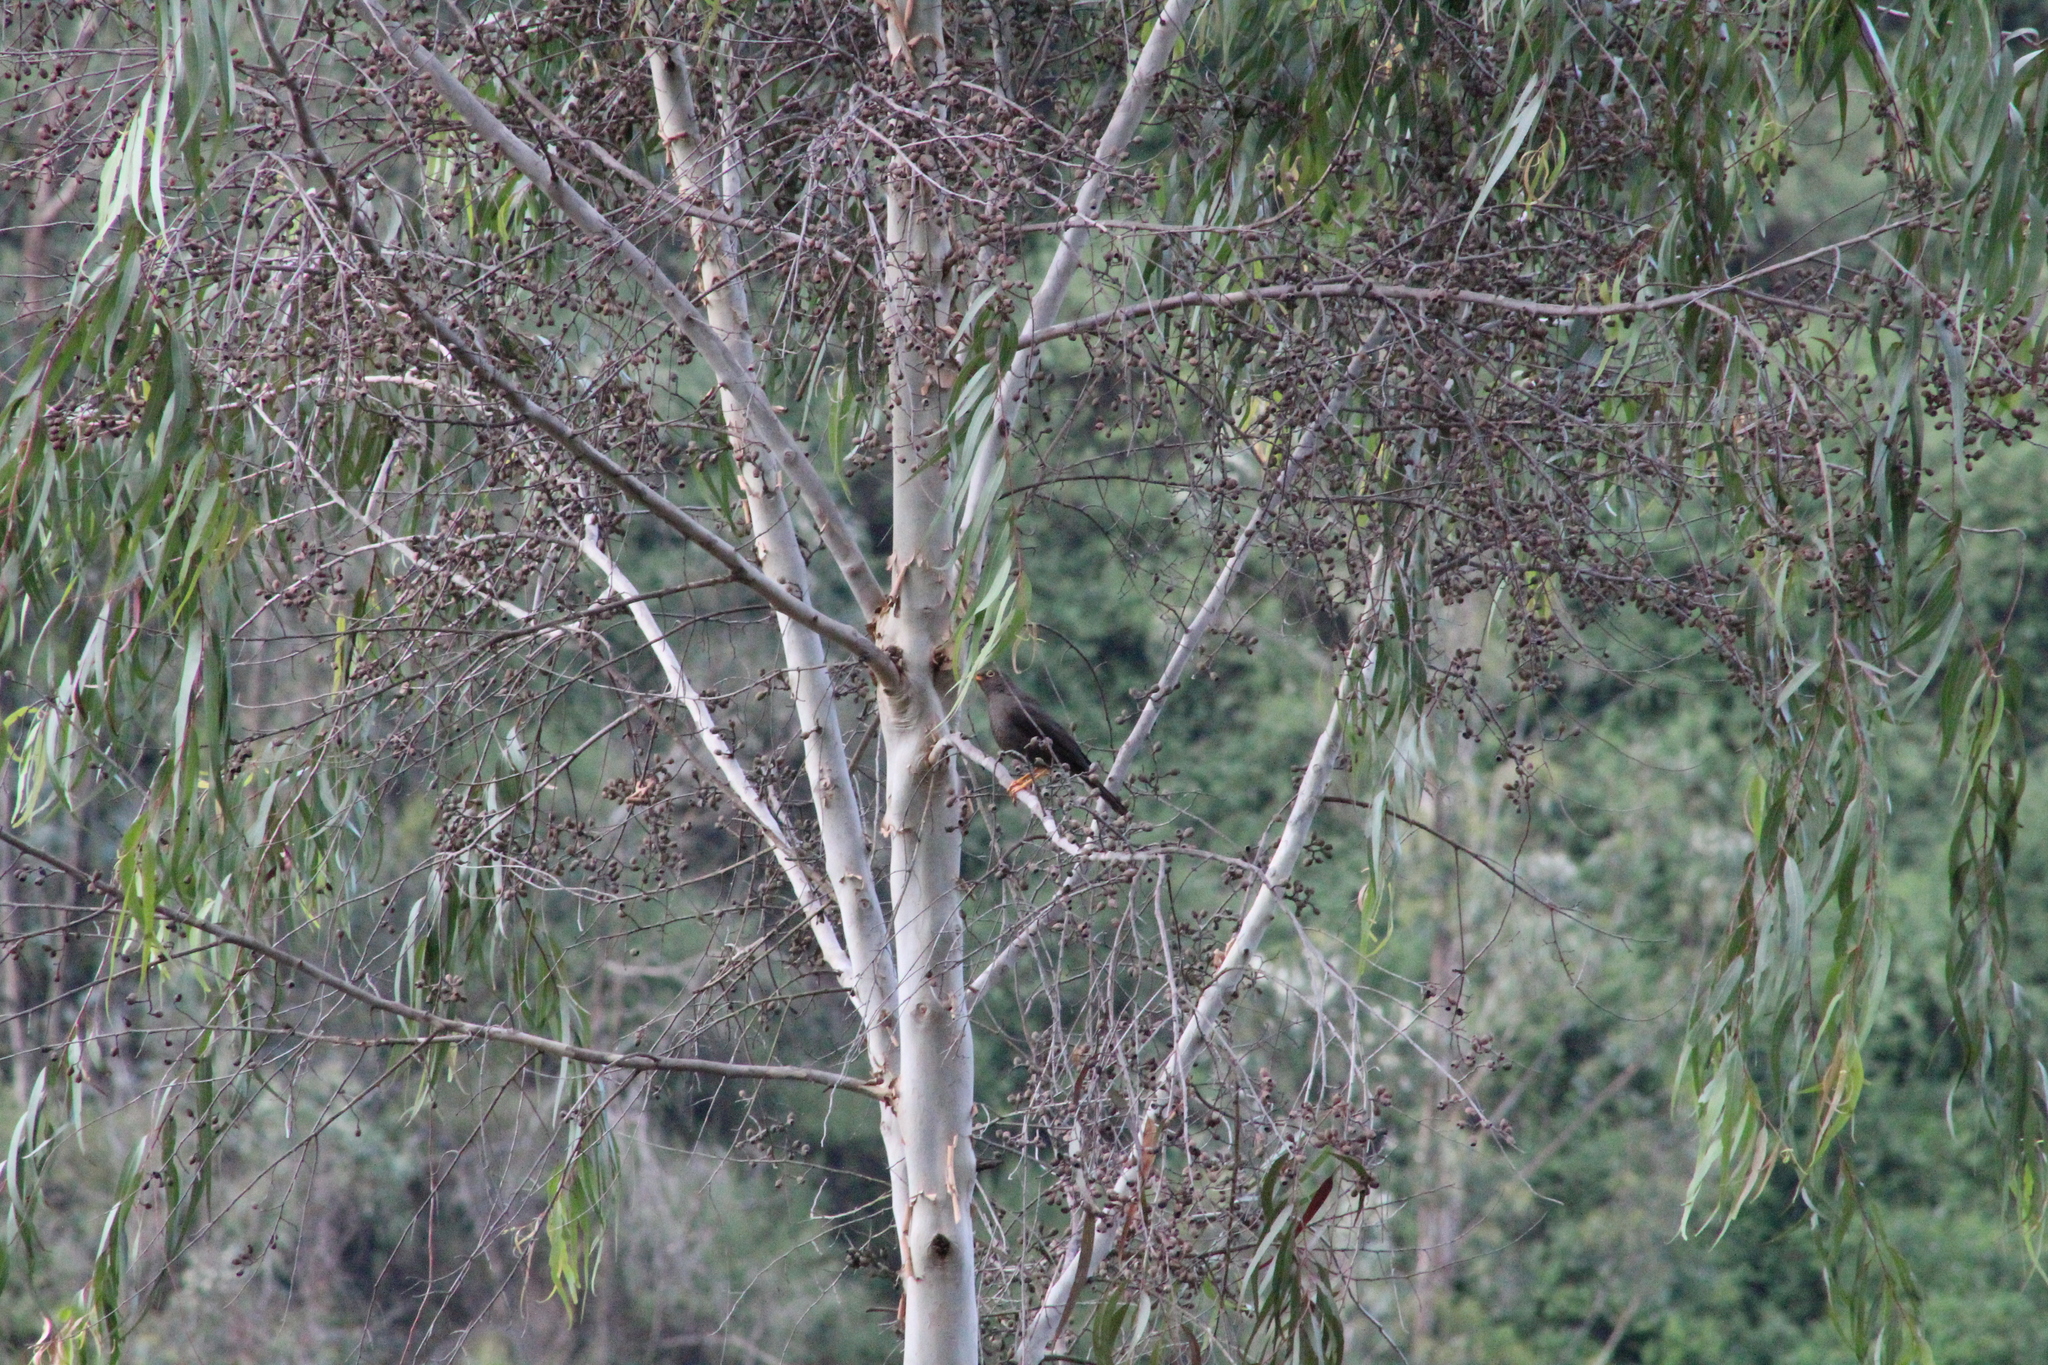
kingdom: Animalia
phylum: Chordata
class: Aves
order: Passeriformes
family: Turdidae
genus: Turdus
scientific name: Turdus fuscater
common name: Great thrush
